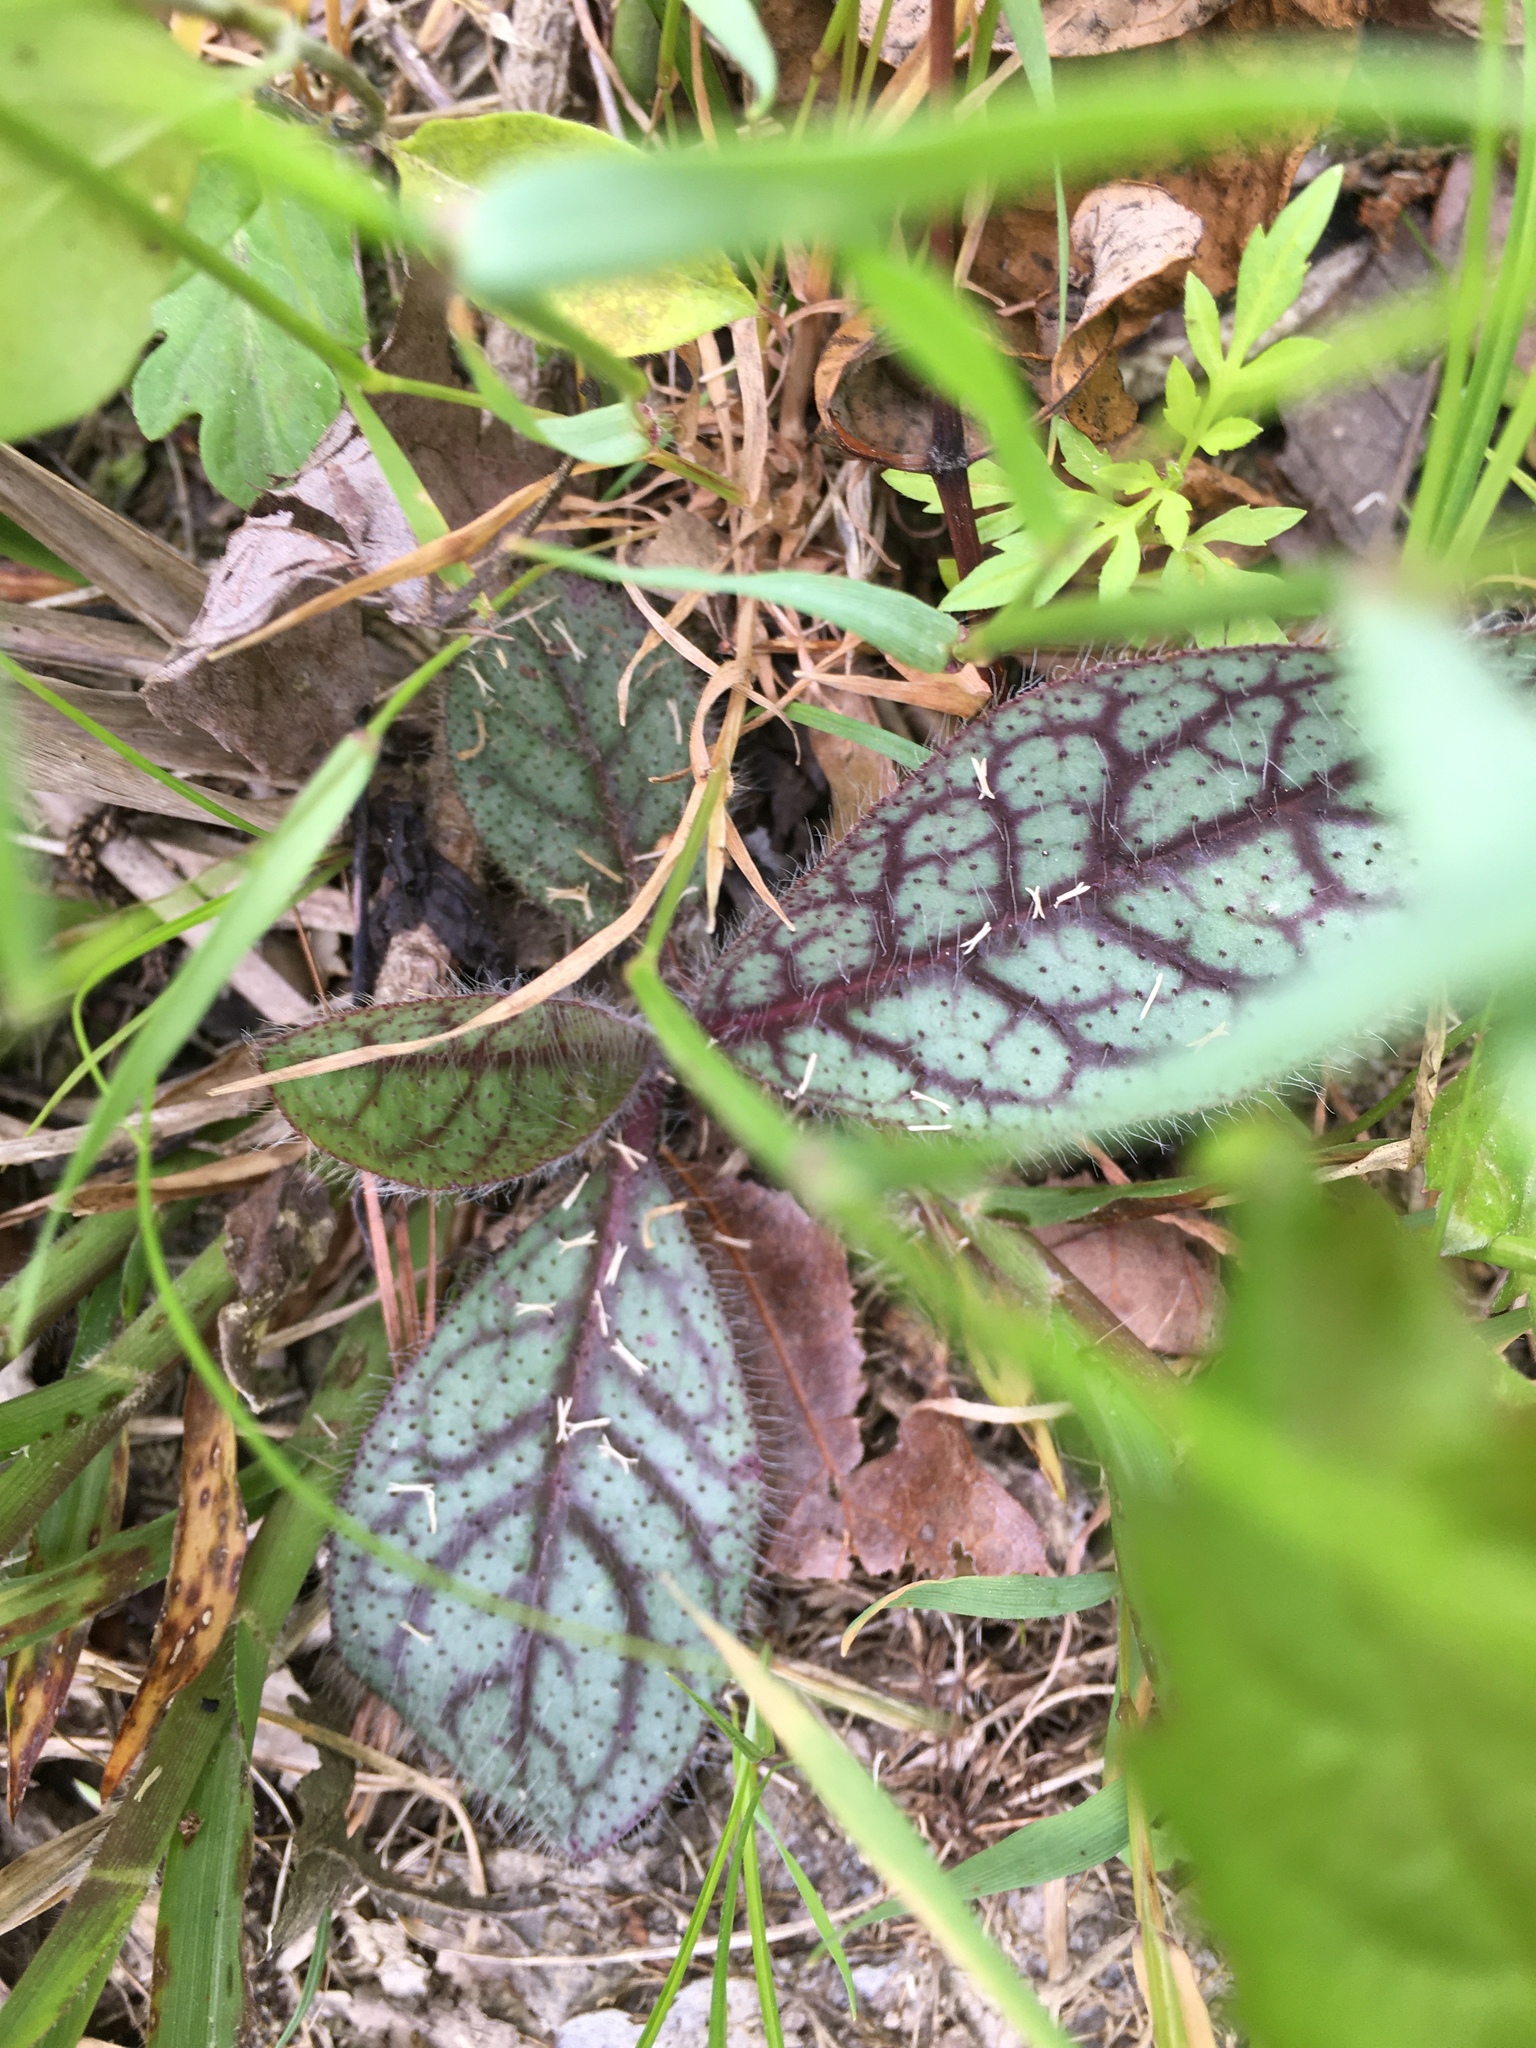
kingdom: Plantae
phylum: Tracheophyta
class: Magnoliopsida
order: Asterales
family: Asteraceae
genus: Hieracium
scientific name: Hieracium venosum
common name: Rattlesnake hawkweed
